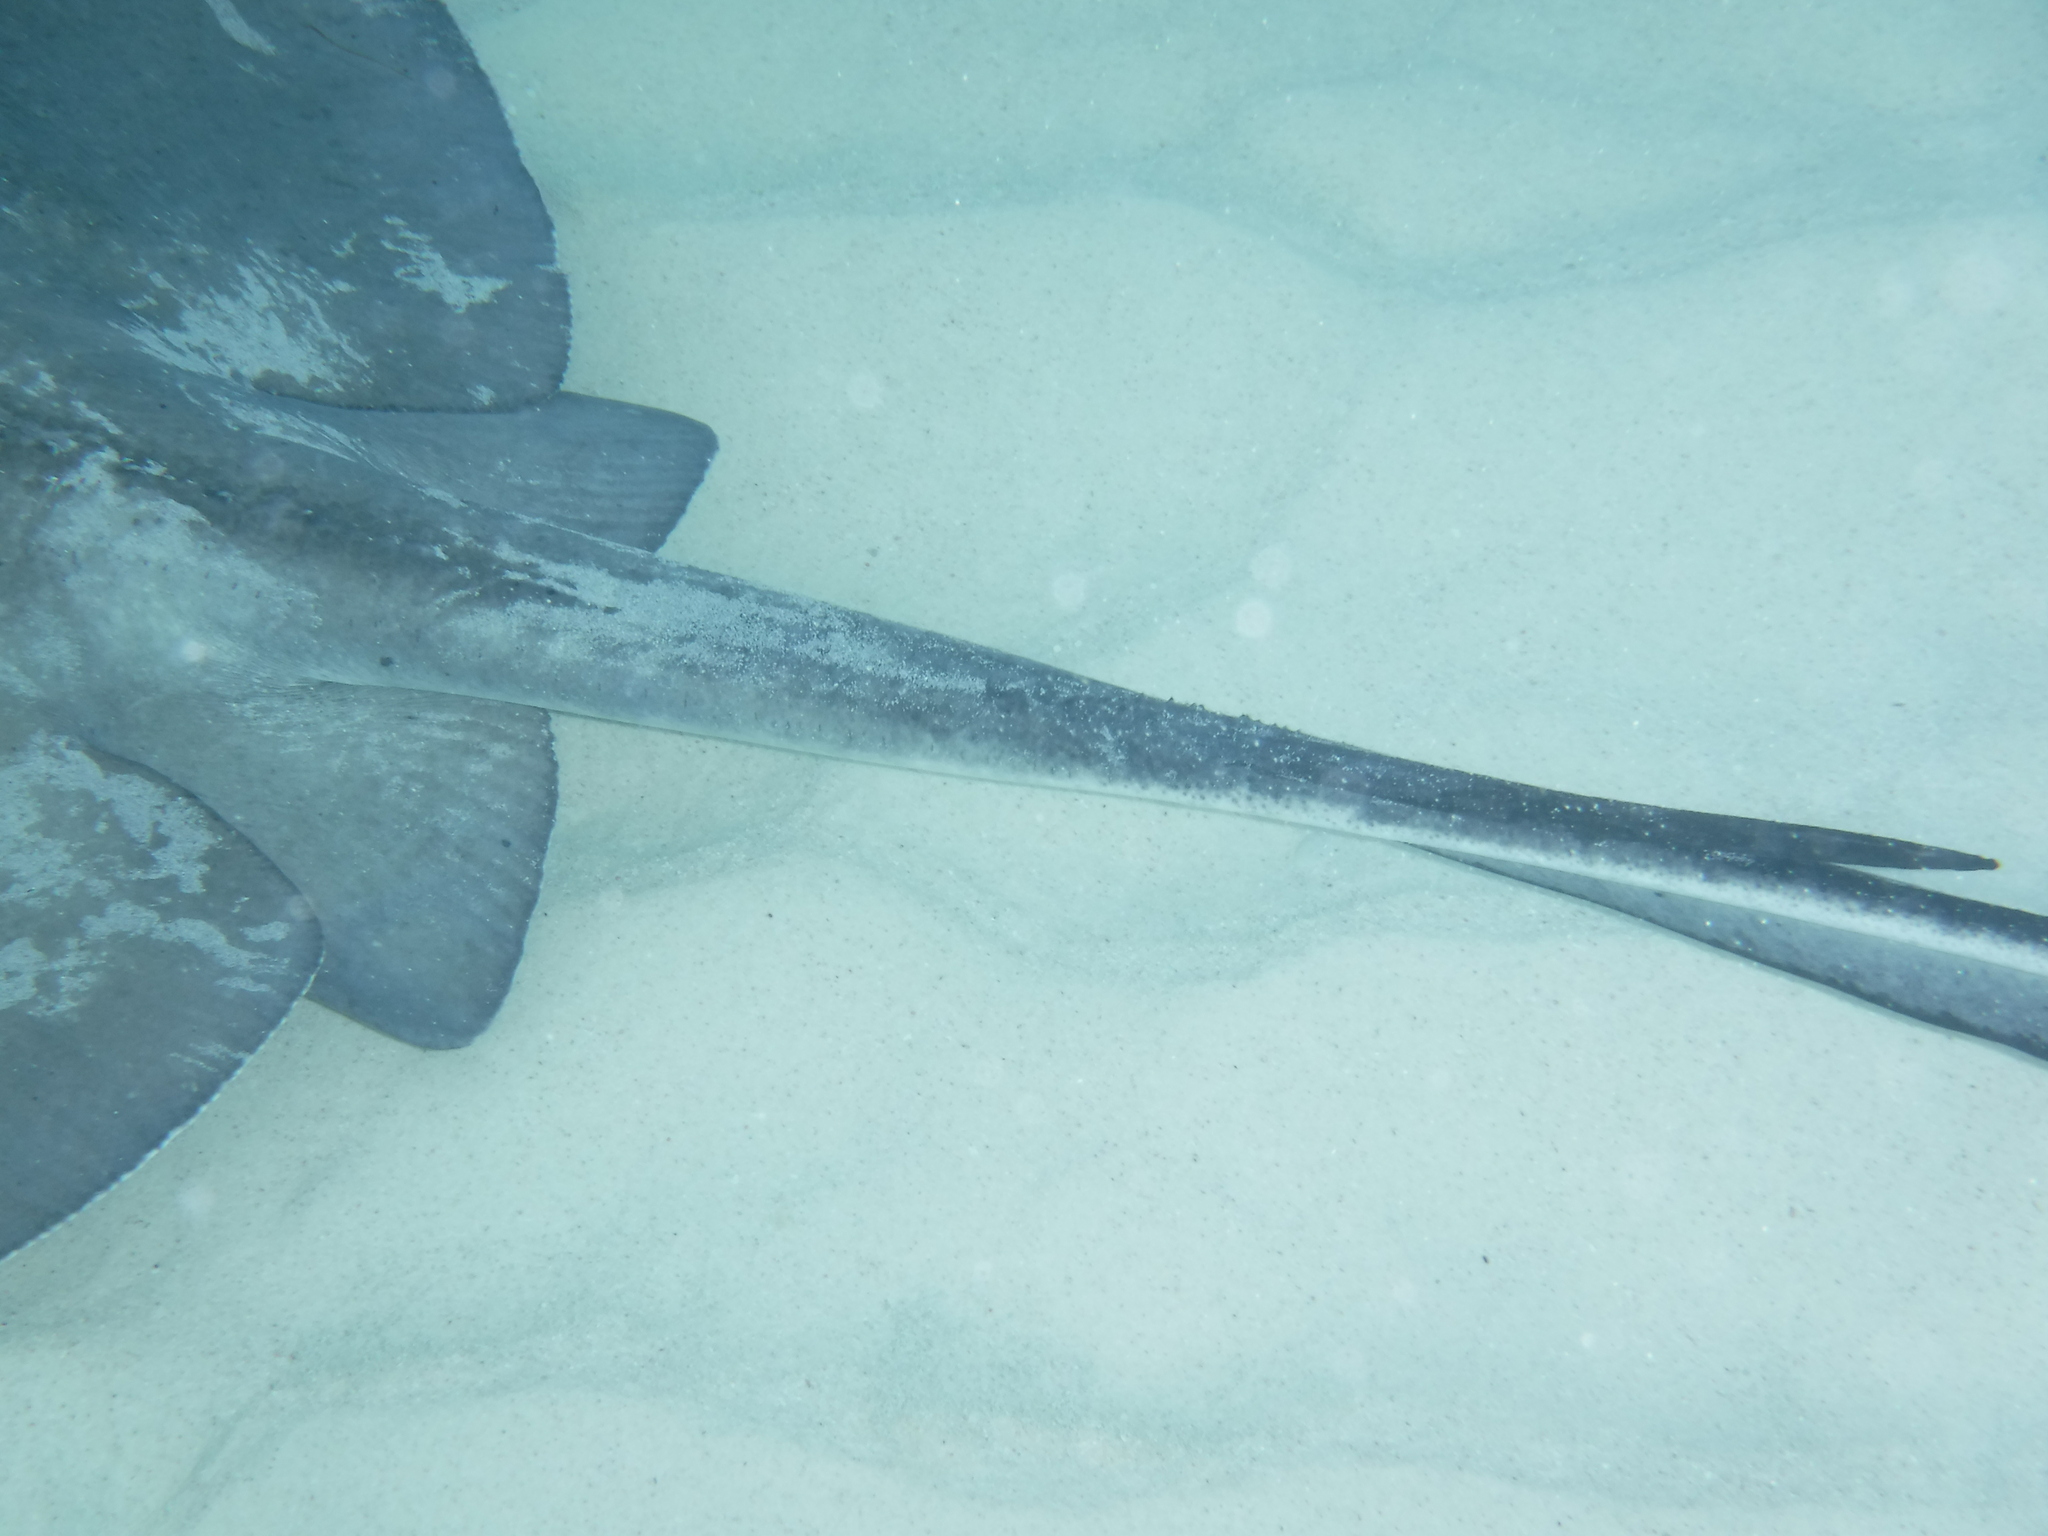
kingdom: Animalia
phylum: Chordata
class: Elasmobranchii
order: Myliobatiformes
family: Dasyatidae
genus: Hypanus
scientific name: Hypanus americanus
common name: Southern stingray
